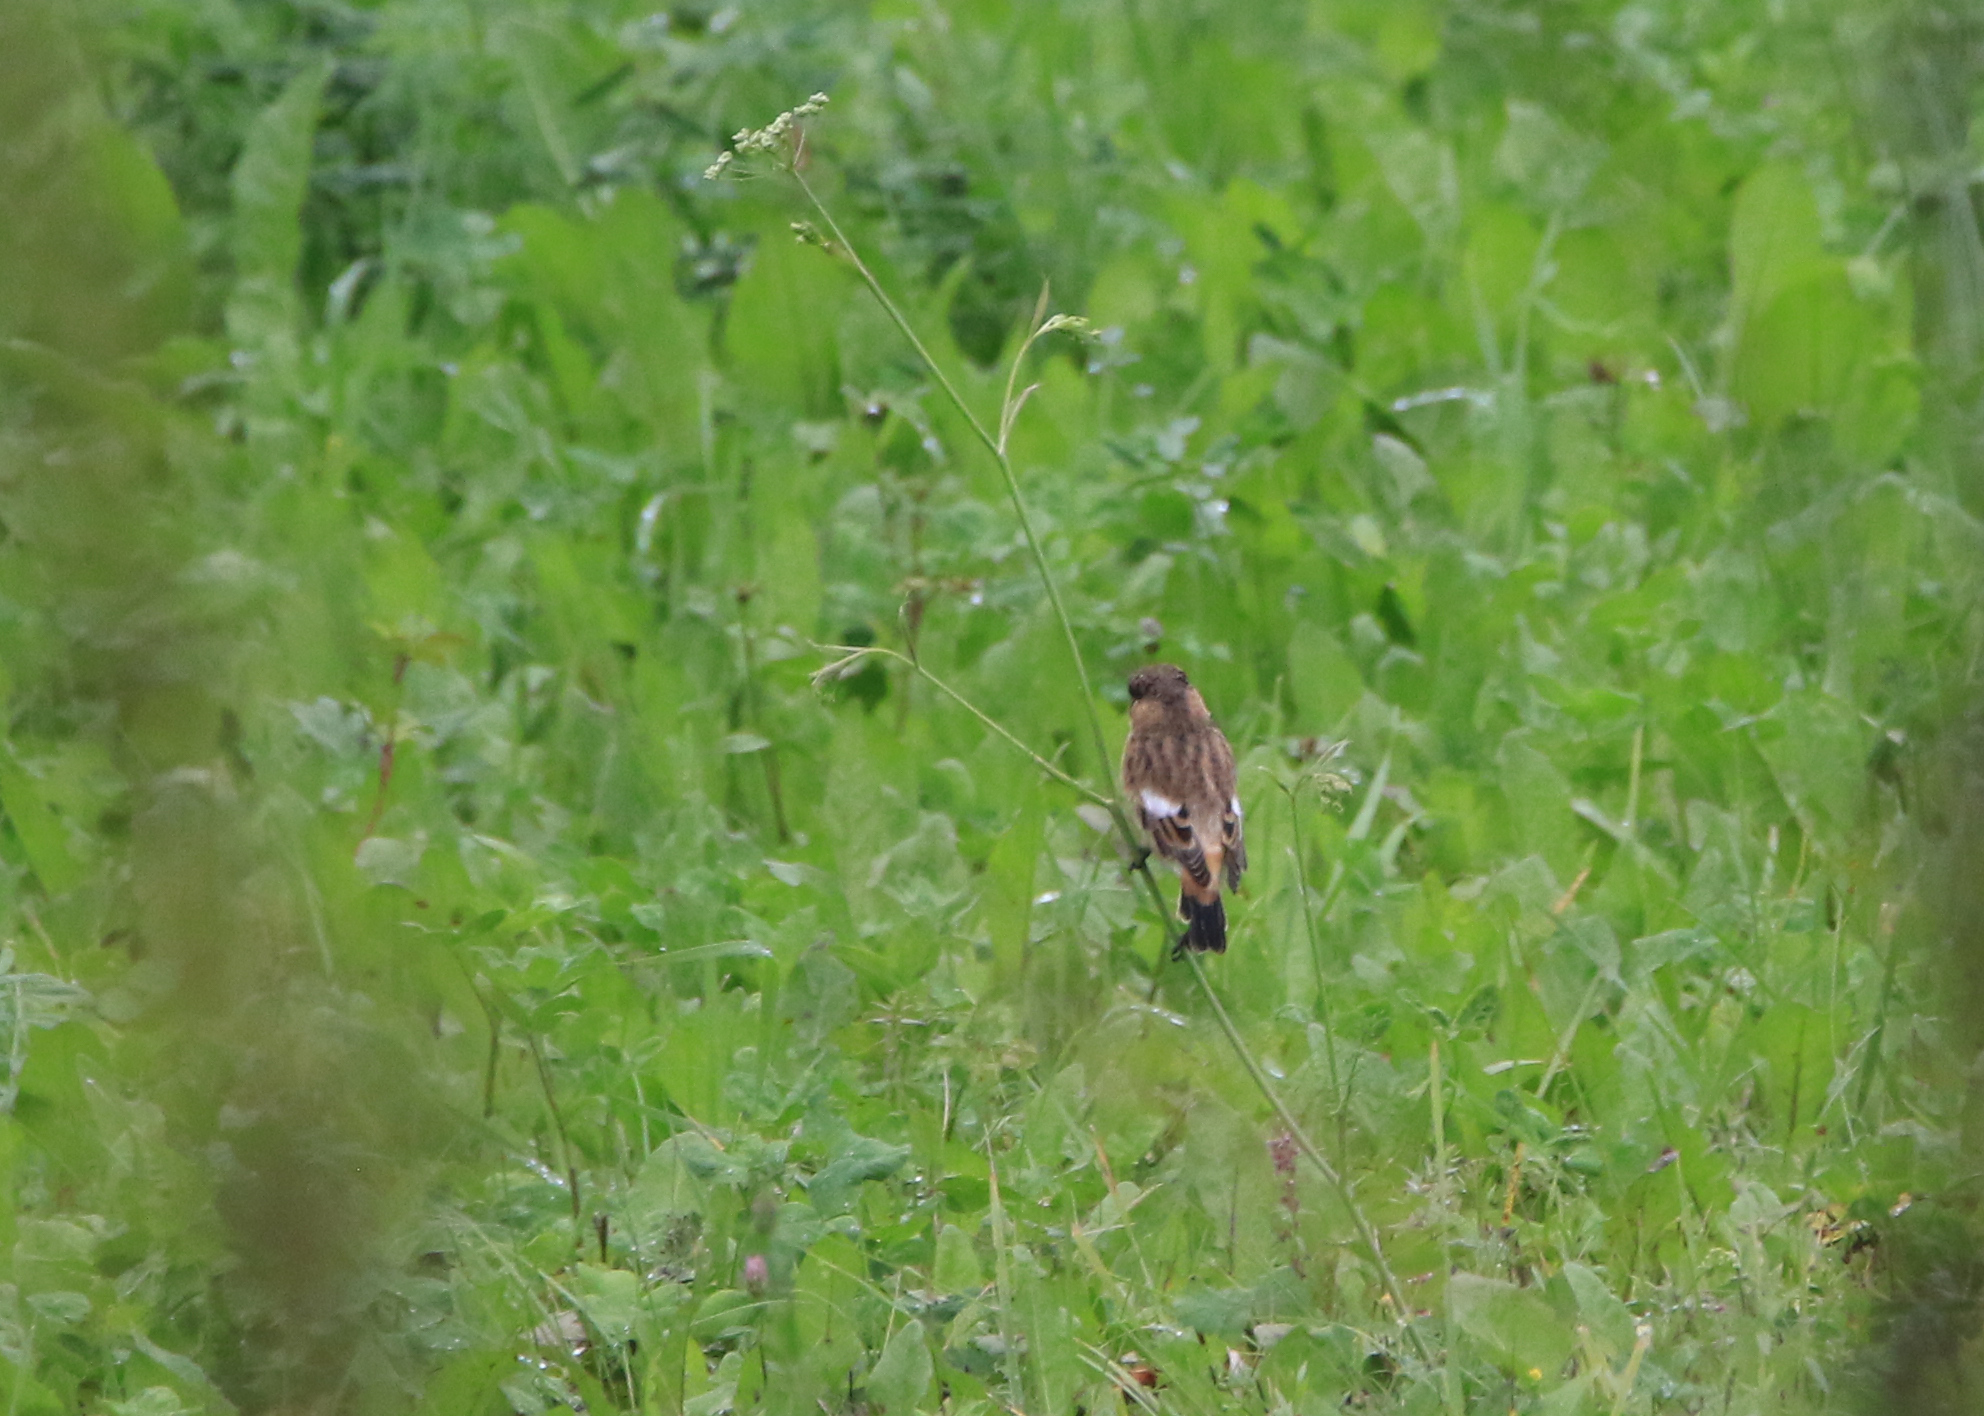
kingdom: Animalia
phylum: Chordata
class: Aves
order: Passeriformes
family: Muscicapidae
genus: Saxicola
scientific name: Saxicola maurus
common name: Siberian stonechat
